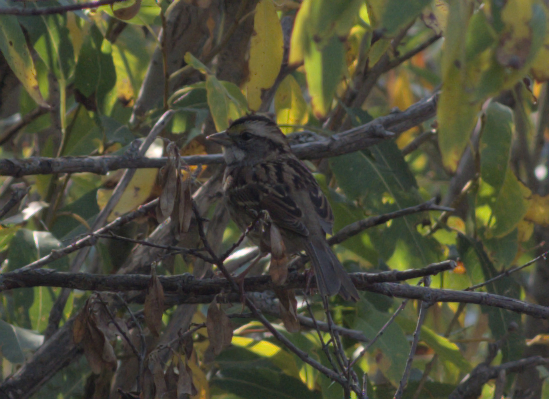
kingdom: Animalia
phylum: Chordata
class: Aves
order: Passeriformes
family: Passerellidae
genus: Zonotrichia
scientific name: Zonotrichia albicollis
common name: White-throated sparrow
